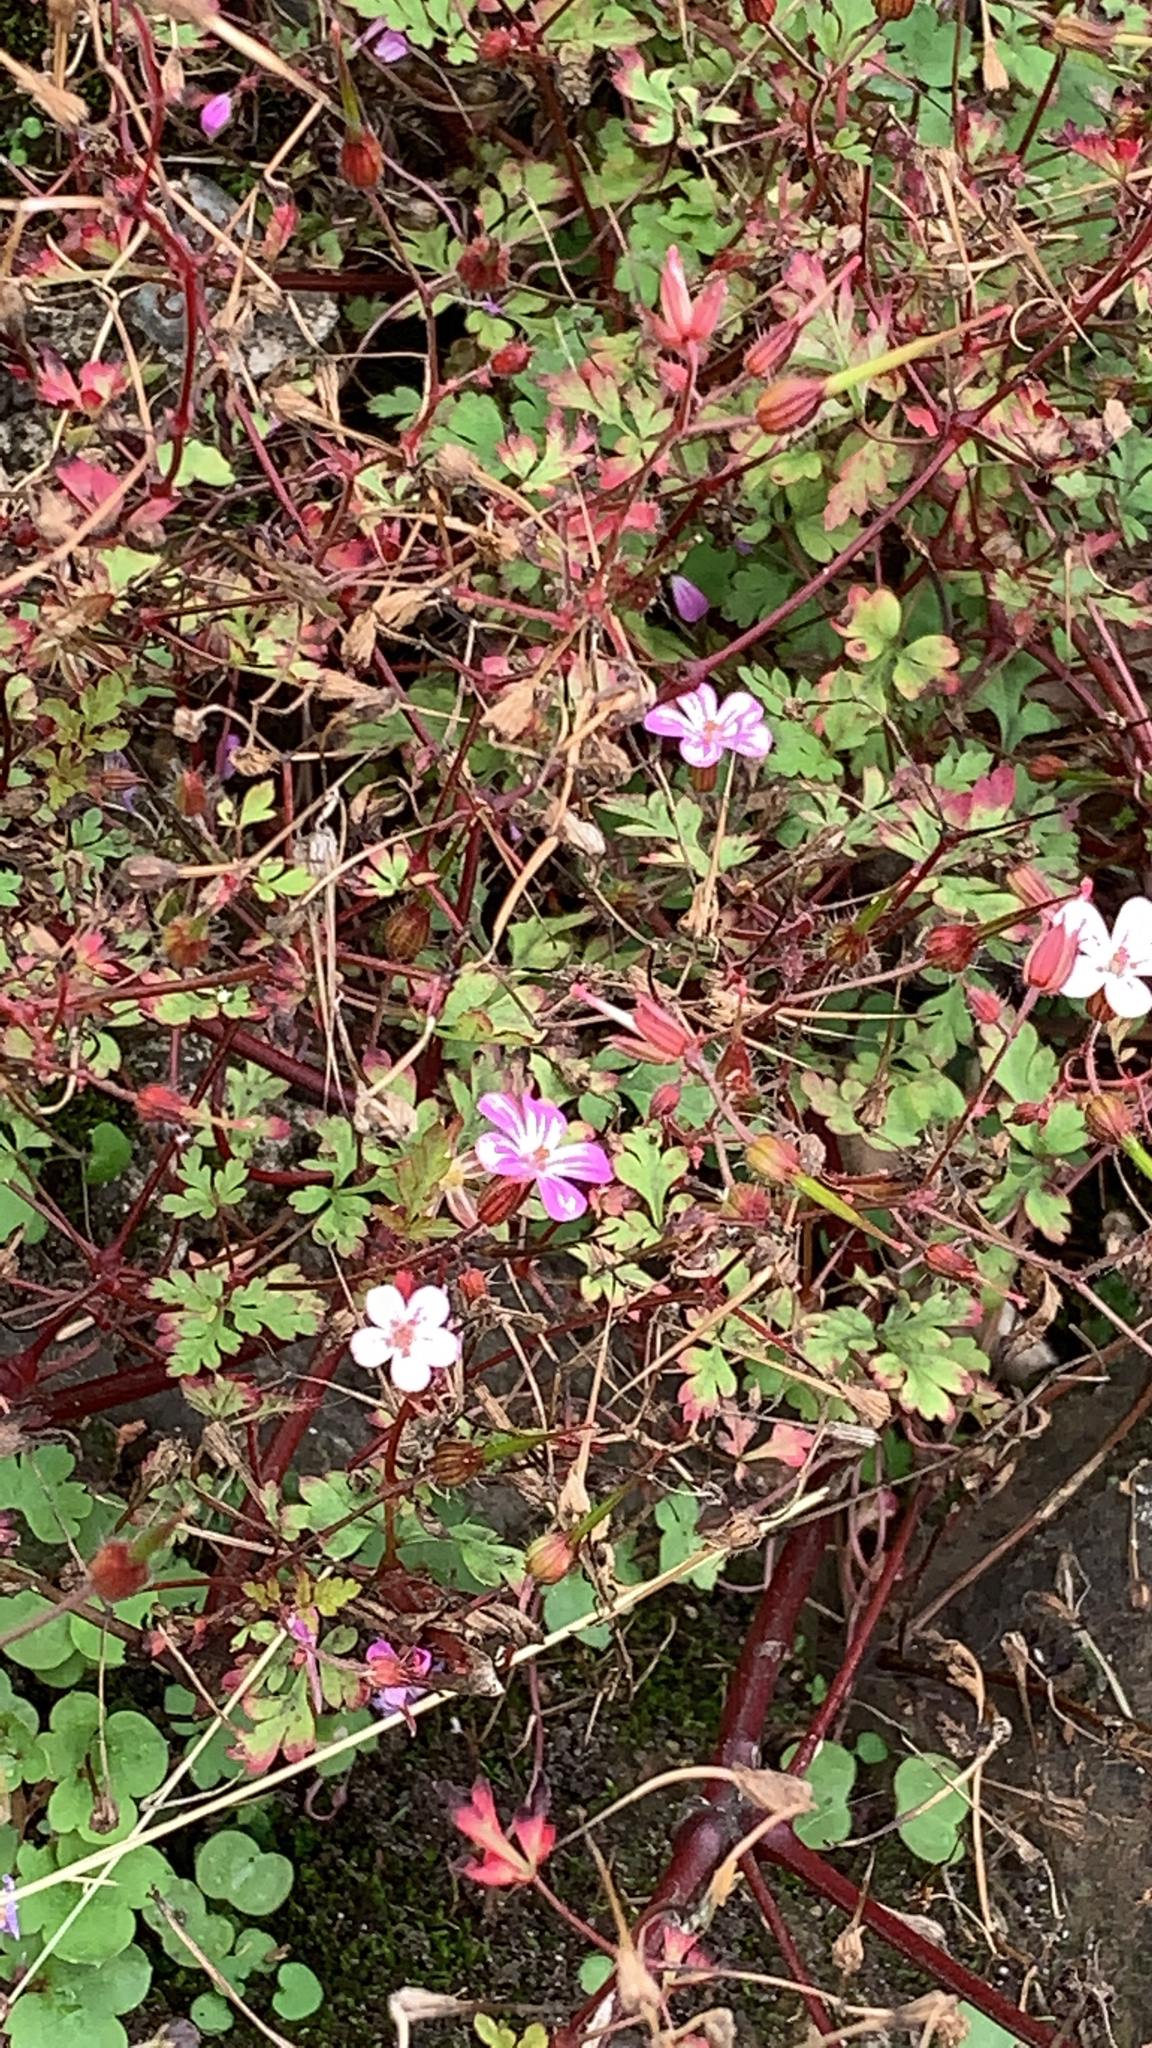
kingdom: Plantae
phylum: Tracheophyta
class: Magnoliopsida
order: Geraniales
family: Geraniaceae
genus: Geranium
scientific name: Geranium robertianum
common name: Herb-robert
